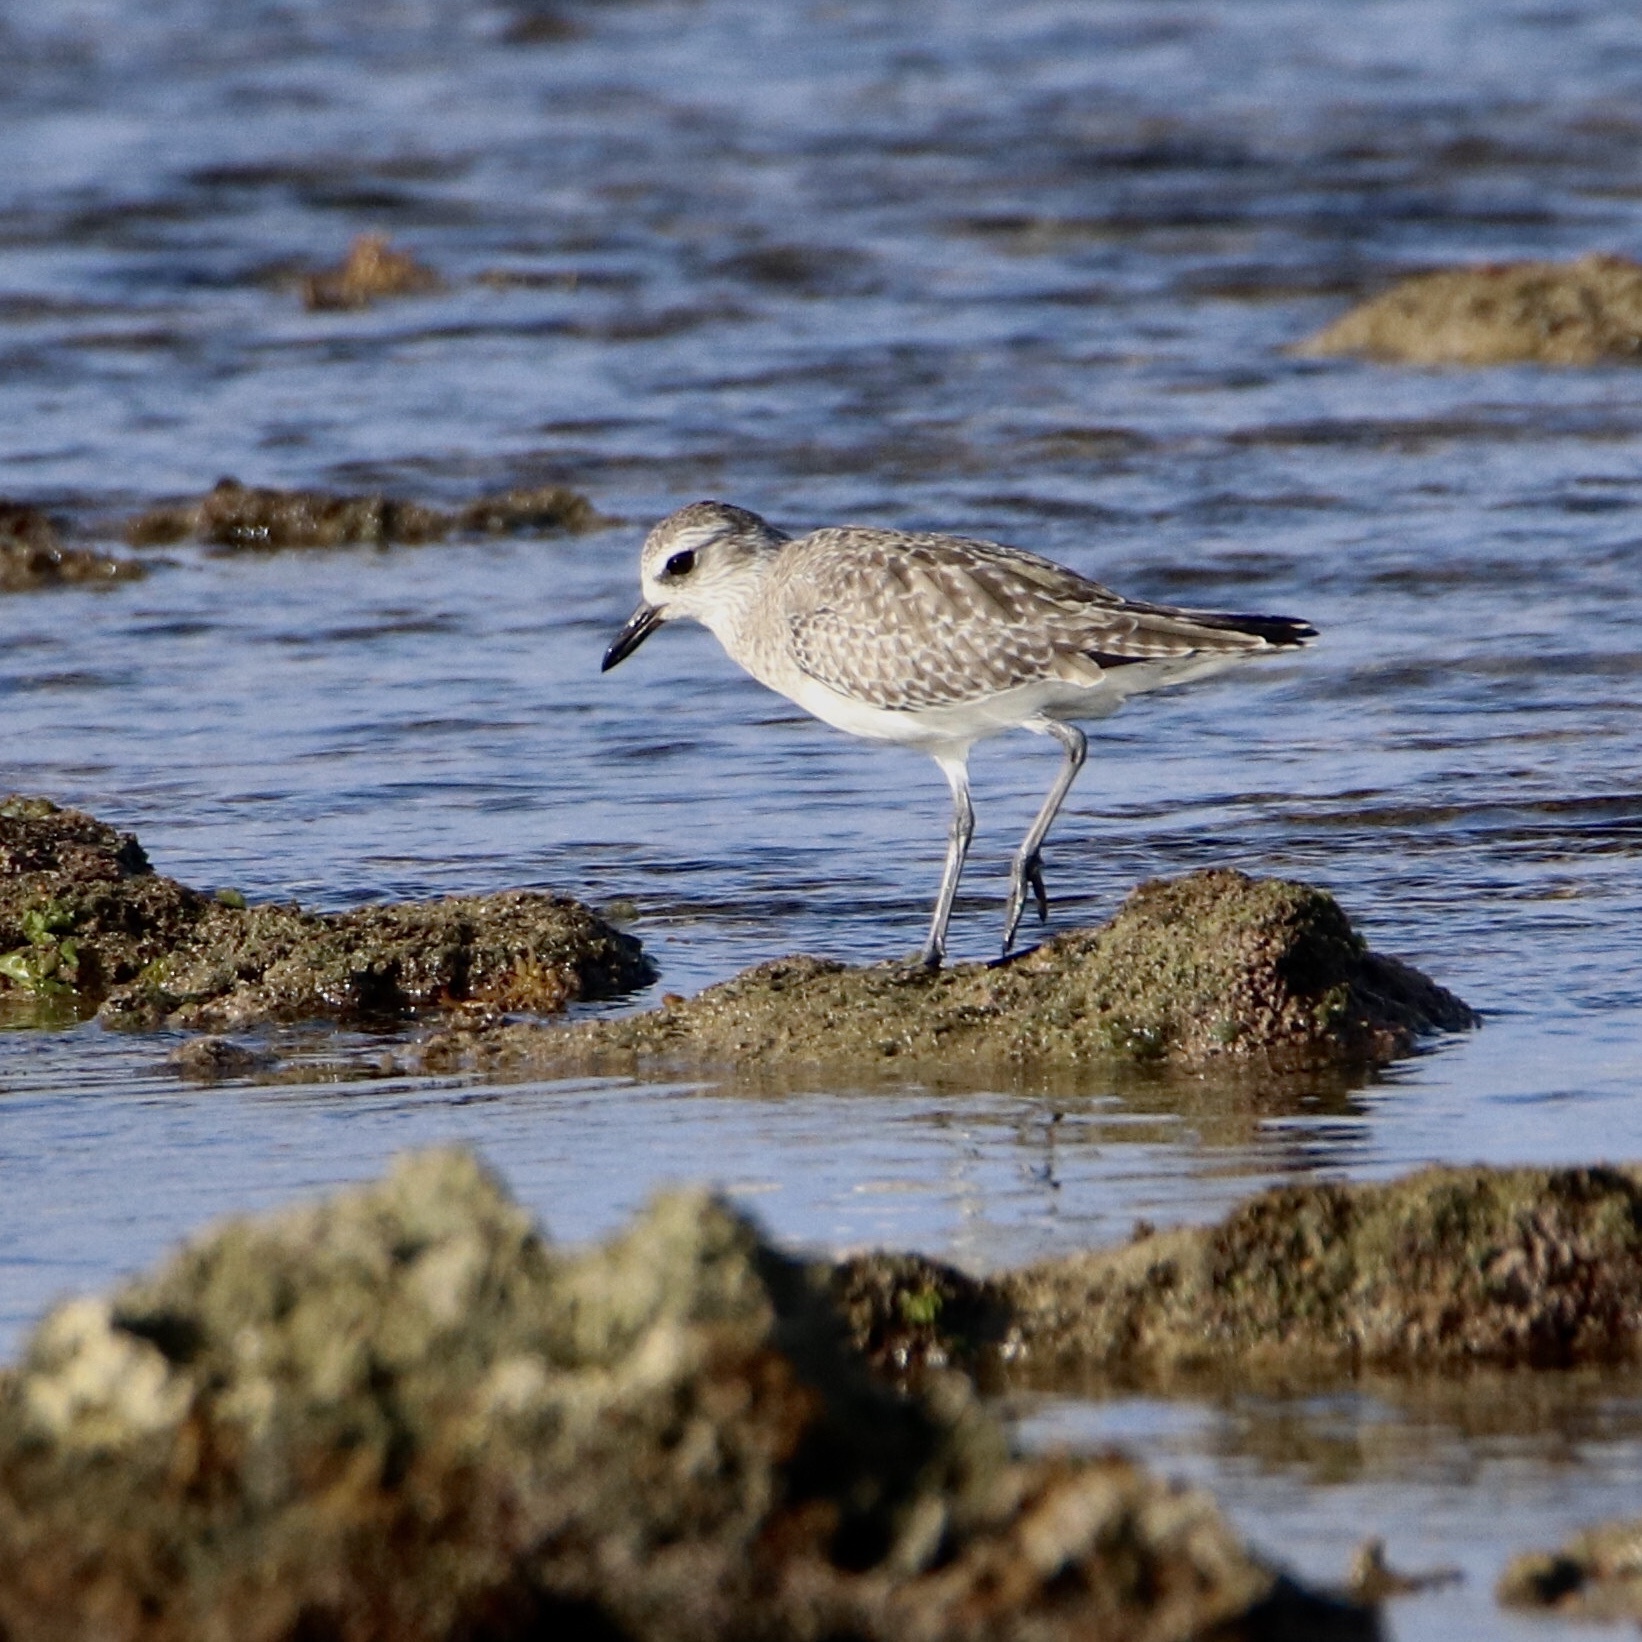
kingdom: Animalia
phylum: Chordata
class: Aves
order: Charadriiformes
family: Charadriidae
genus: Pluvialis
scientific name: Pluvialis squatarola
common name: Grey plover
